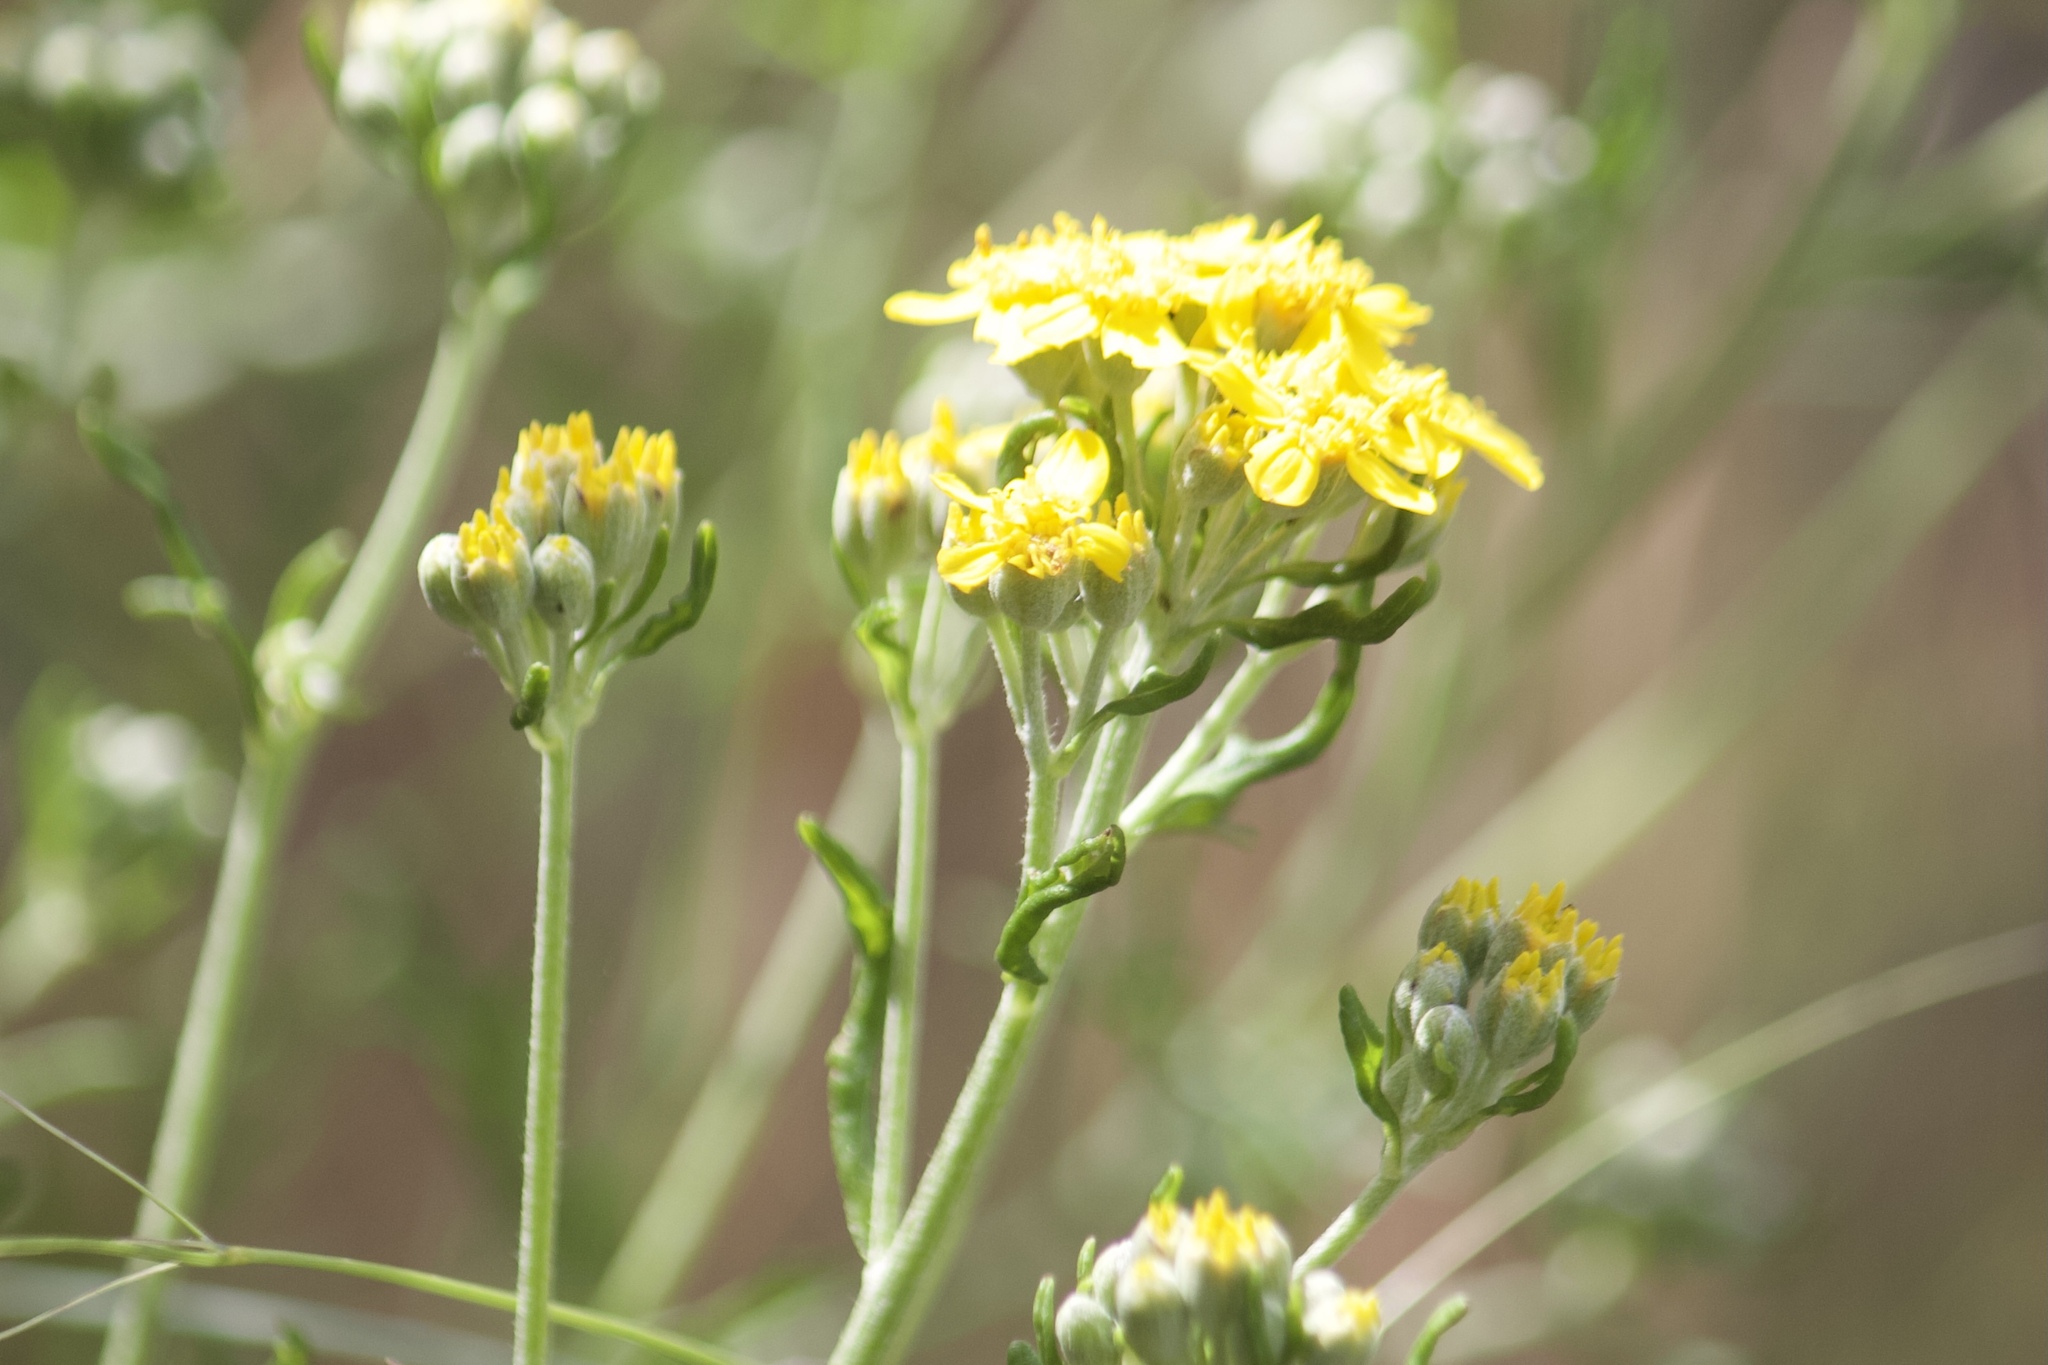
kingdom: Plantae
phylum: Tracheophyta
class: Magnoliopsida
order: Asterales
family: Asteraceae
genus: Eriophyllum
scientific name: Eriophyllum confertiflorum
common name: Golden-yarrow
